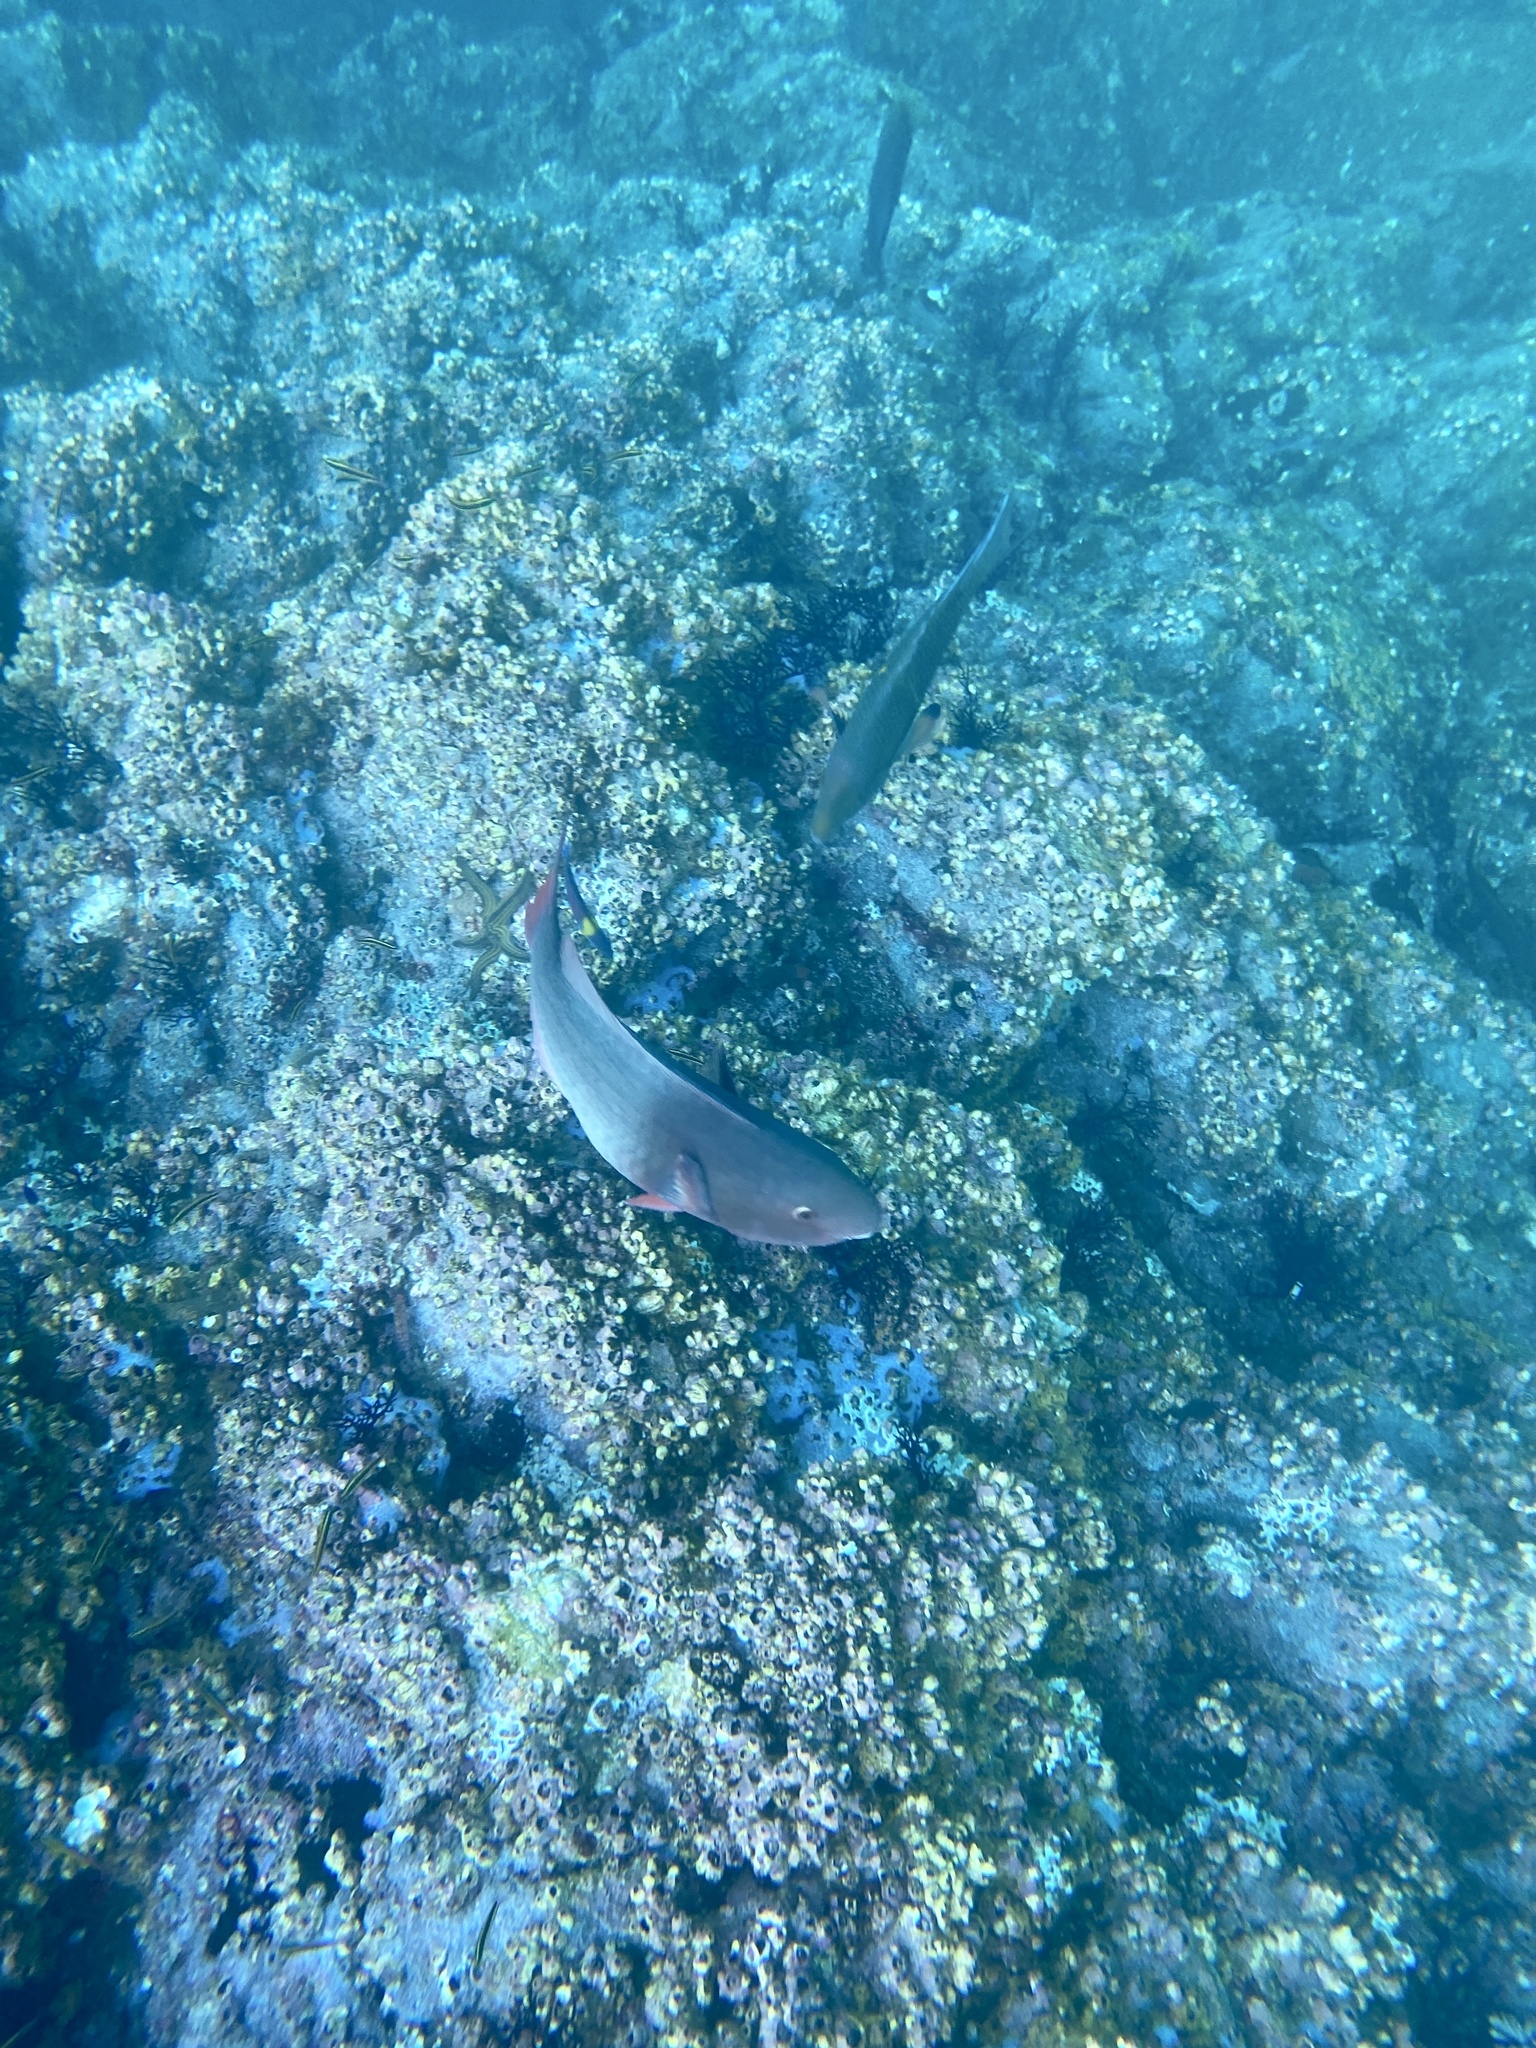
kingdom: Animalia
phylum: Chordata
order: Perciformes
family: Scaridae
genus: Scarus
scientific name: Scarus rubroviolaceus
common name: Ember parrotfish
